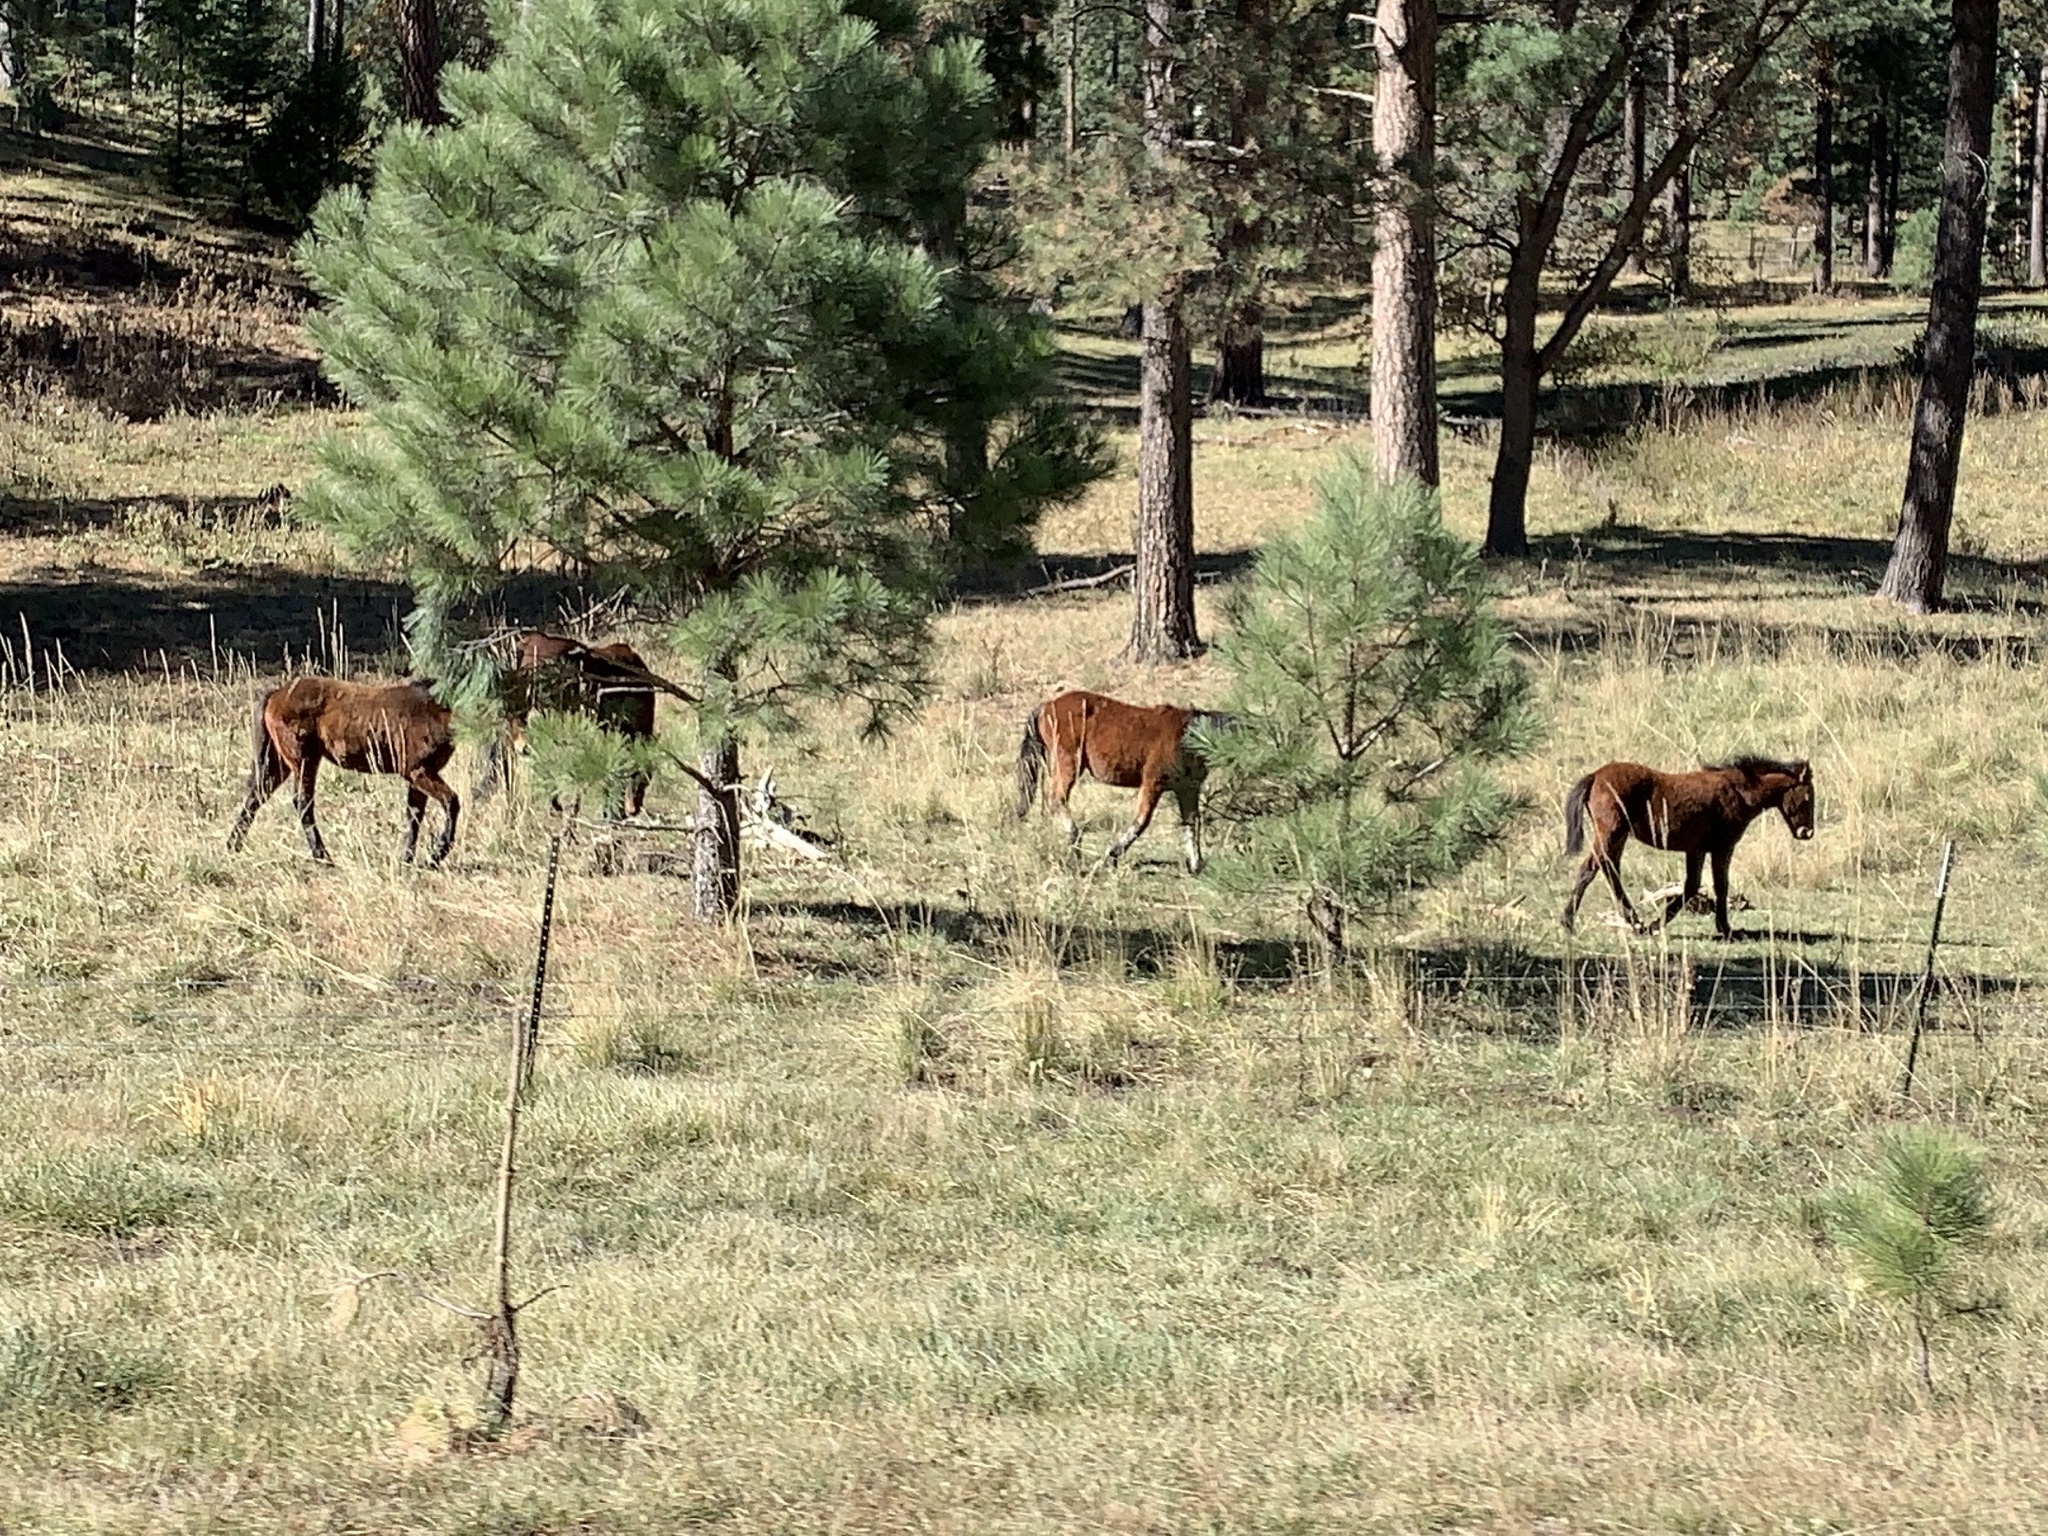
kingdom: Animalia
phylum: Chordata
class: Mammalia
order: Perissodactyla
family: Equidae
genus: Equus
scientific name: Equus caballus
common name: Horse
